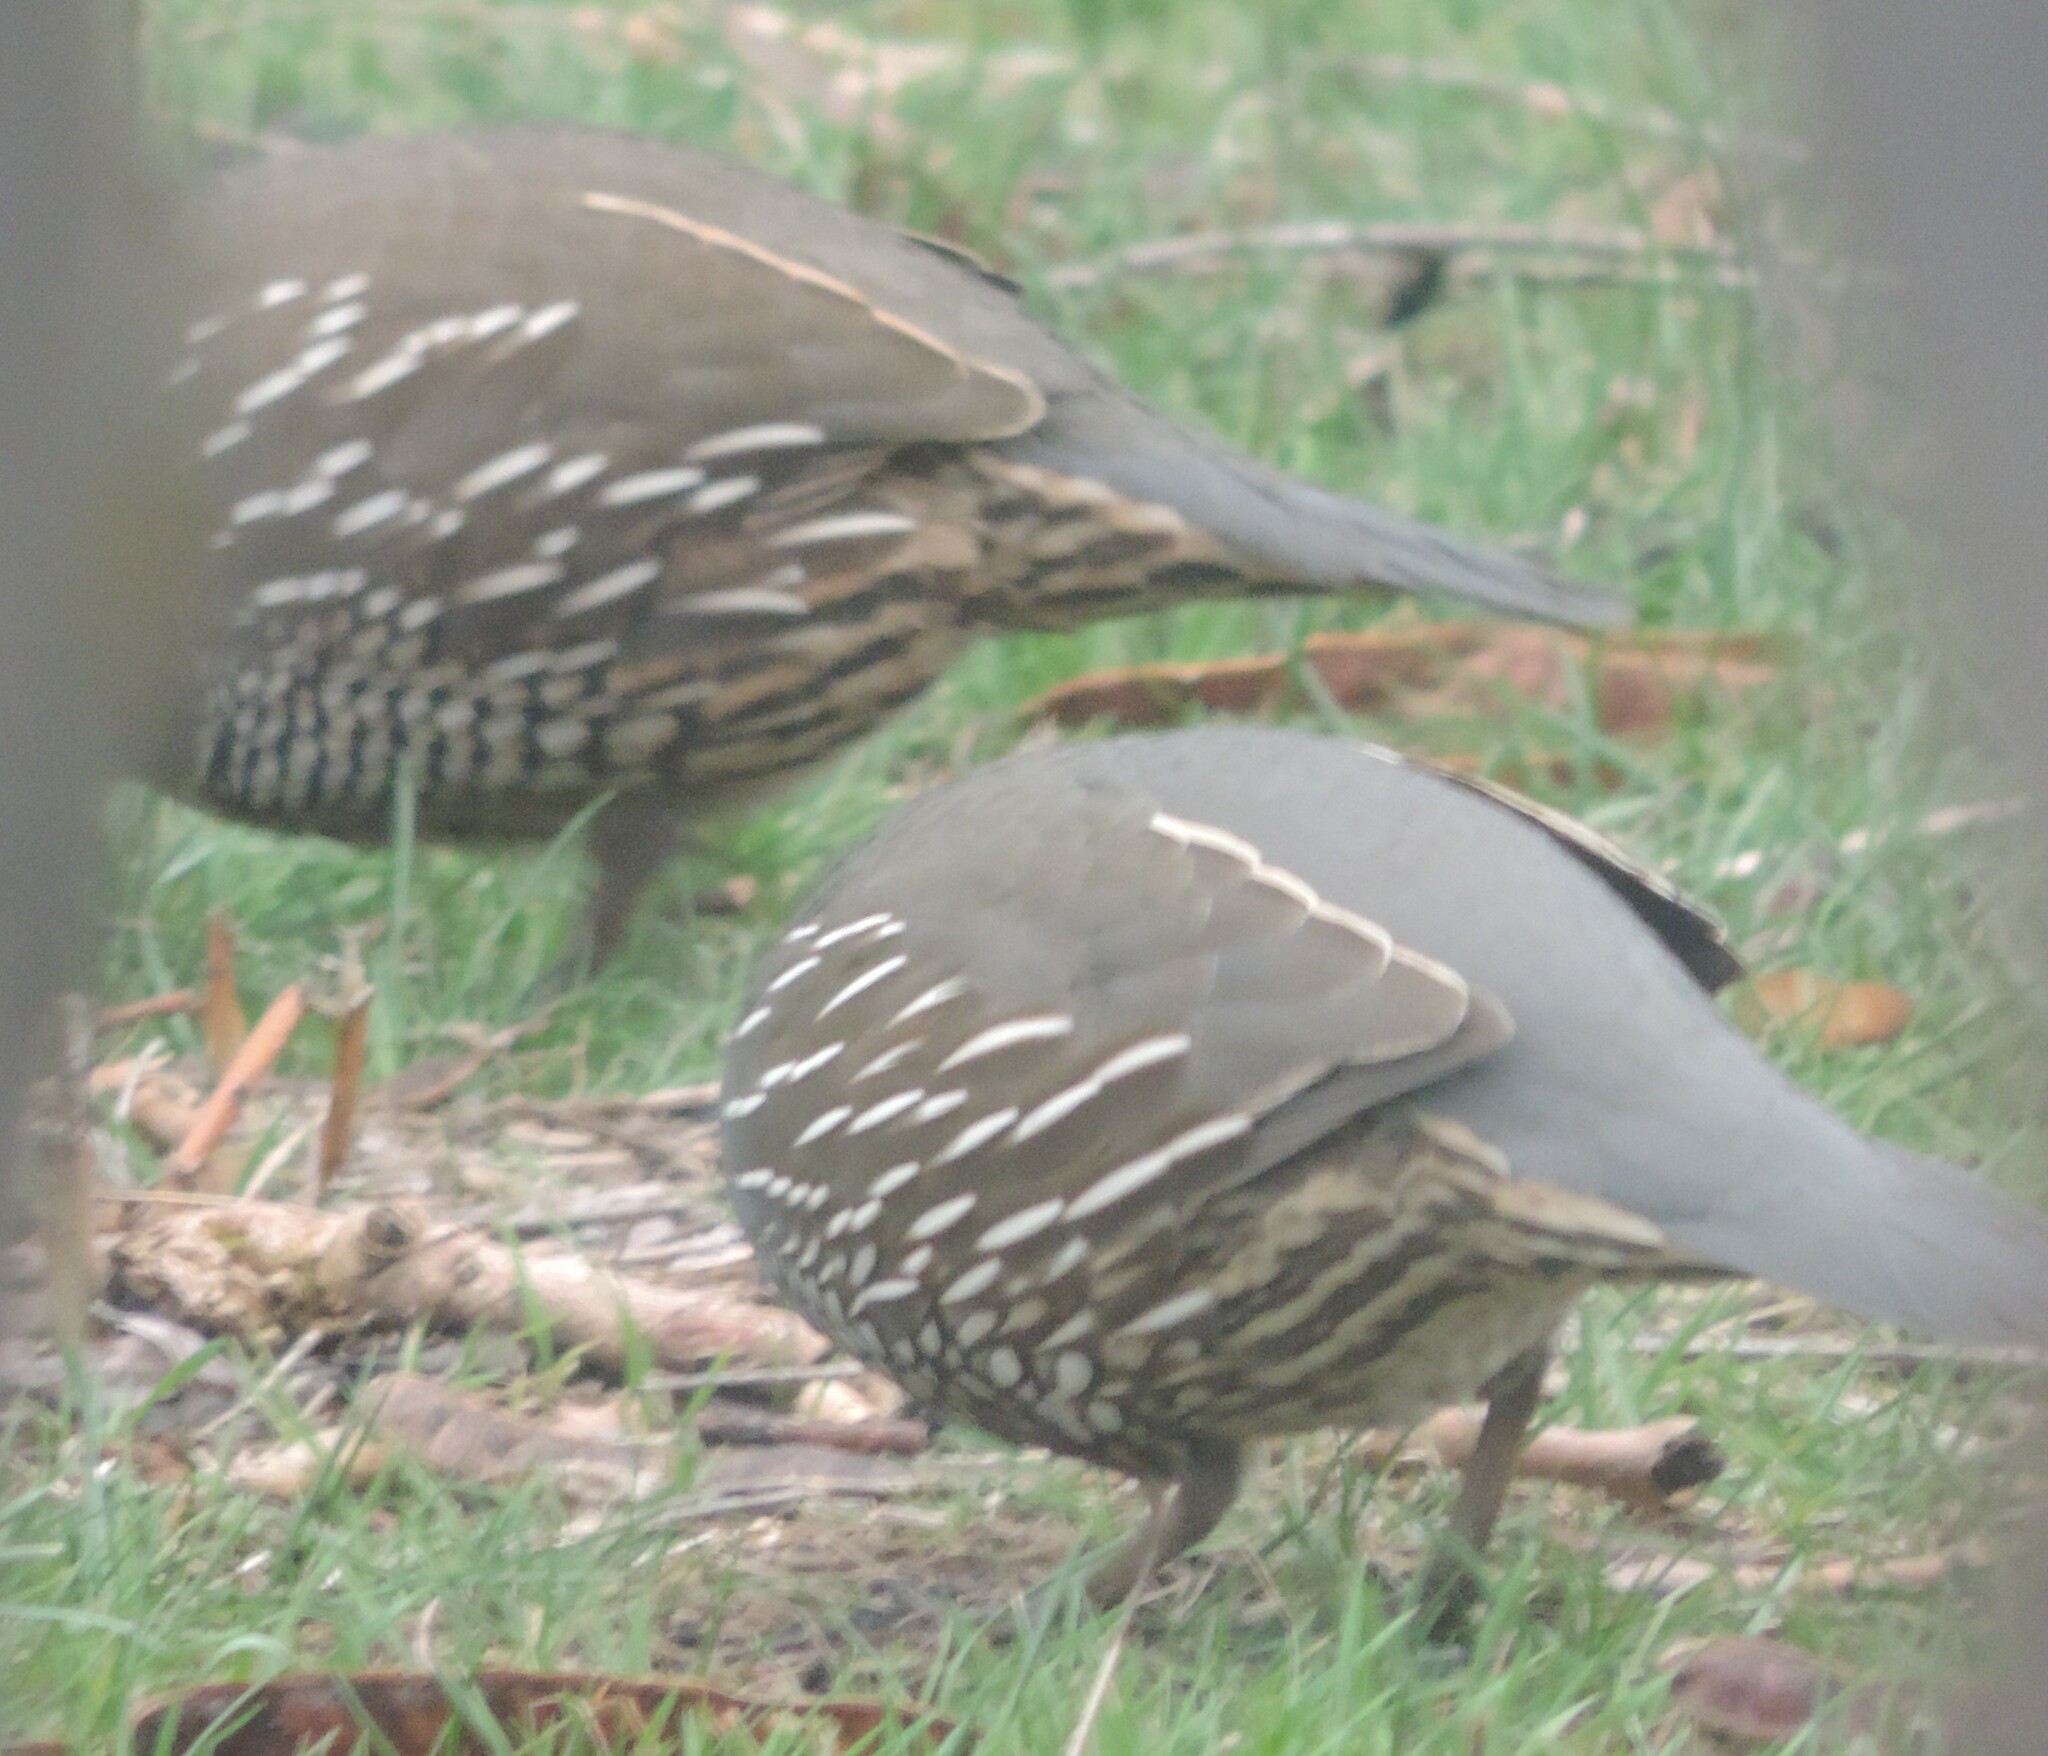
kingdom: Animalia
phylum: Chordata
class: Aves
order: Galliformes
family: Odontophoridae
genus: Callipepla
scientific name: Callipepla californica
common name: California quail
